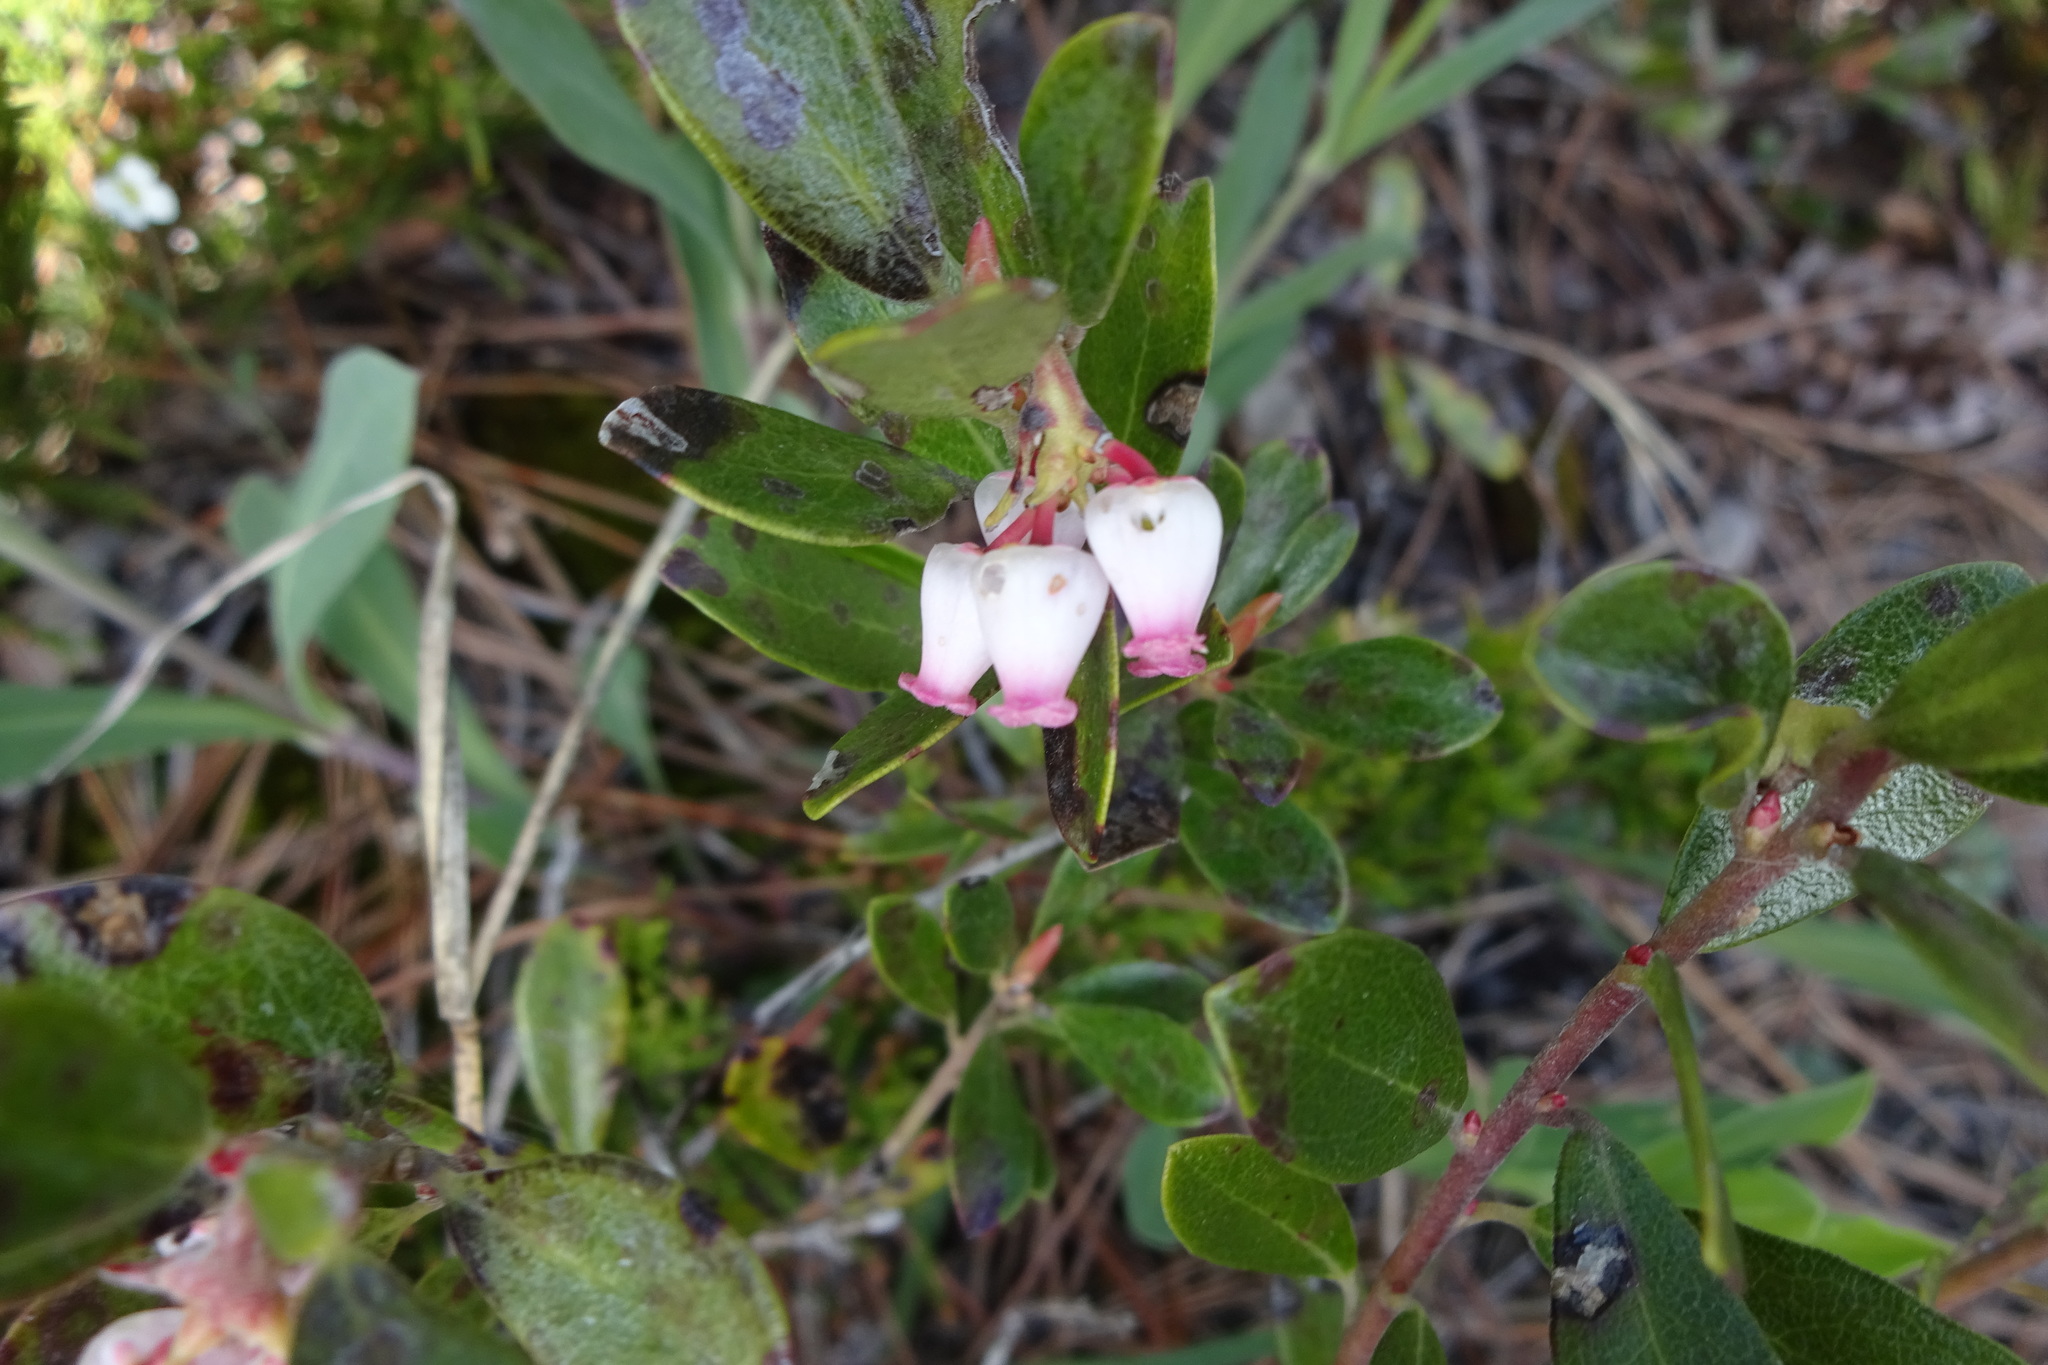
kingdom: Plantae
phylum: Tracheophyta
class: Magnoliopsida
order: Ericales
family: Ericaceae
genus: Arctostaphylos
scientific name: Arctostaphylos uva-ursi
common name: Bearberry
